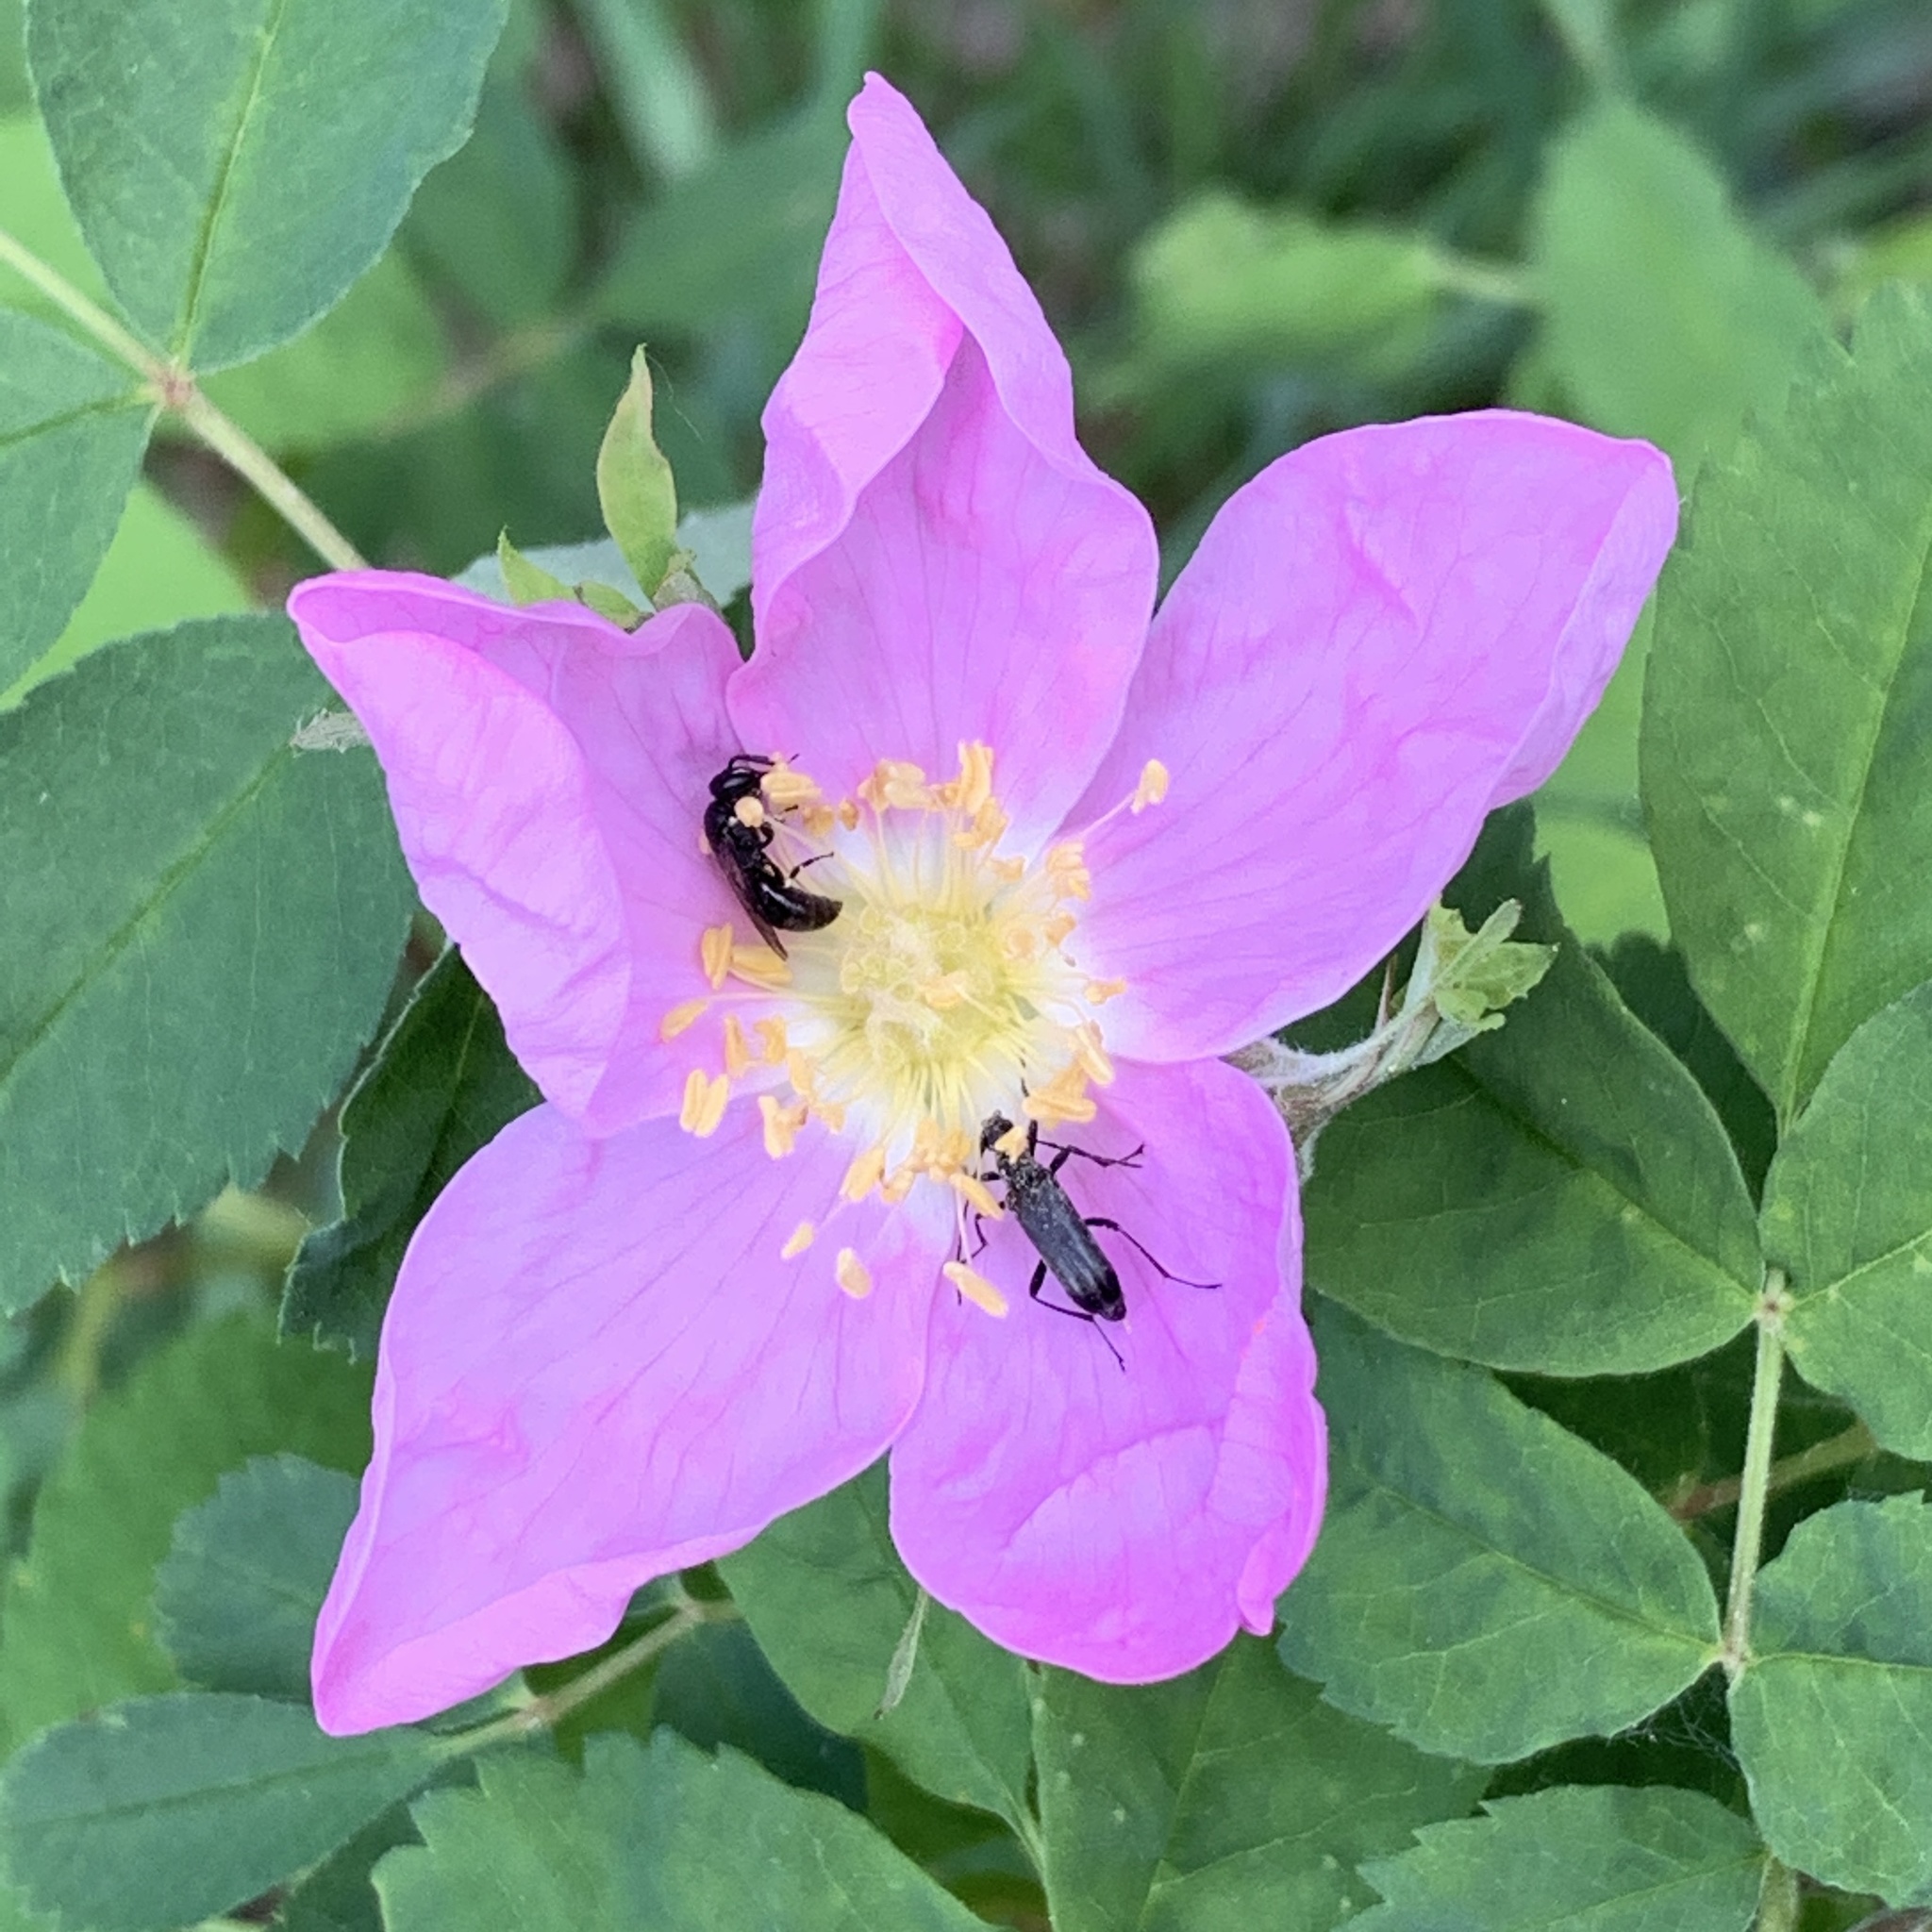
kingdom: Plantae
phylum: Tracheophyta
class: Magnoliopsida
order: Rosales
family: Rosaceae
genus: Rosa
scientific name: Rosa acicularis
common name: Prickly rose
